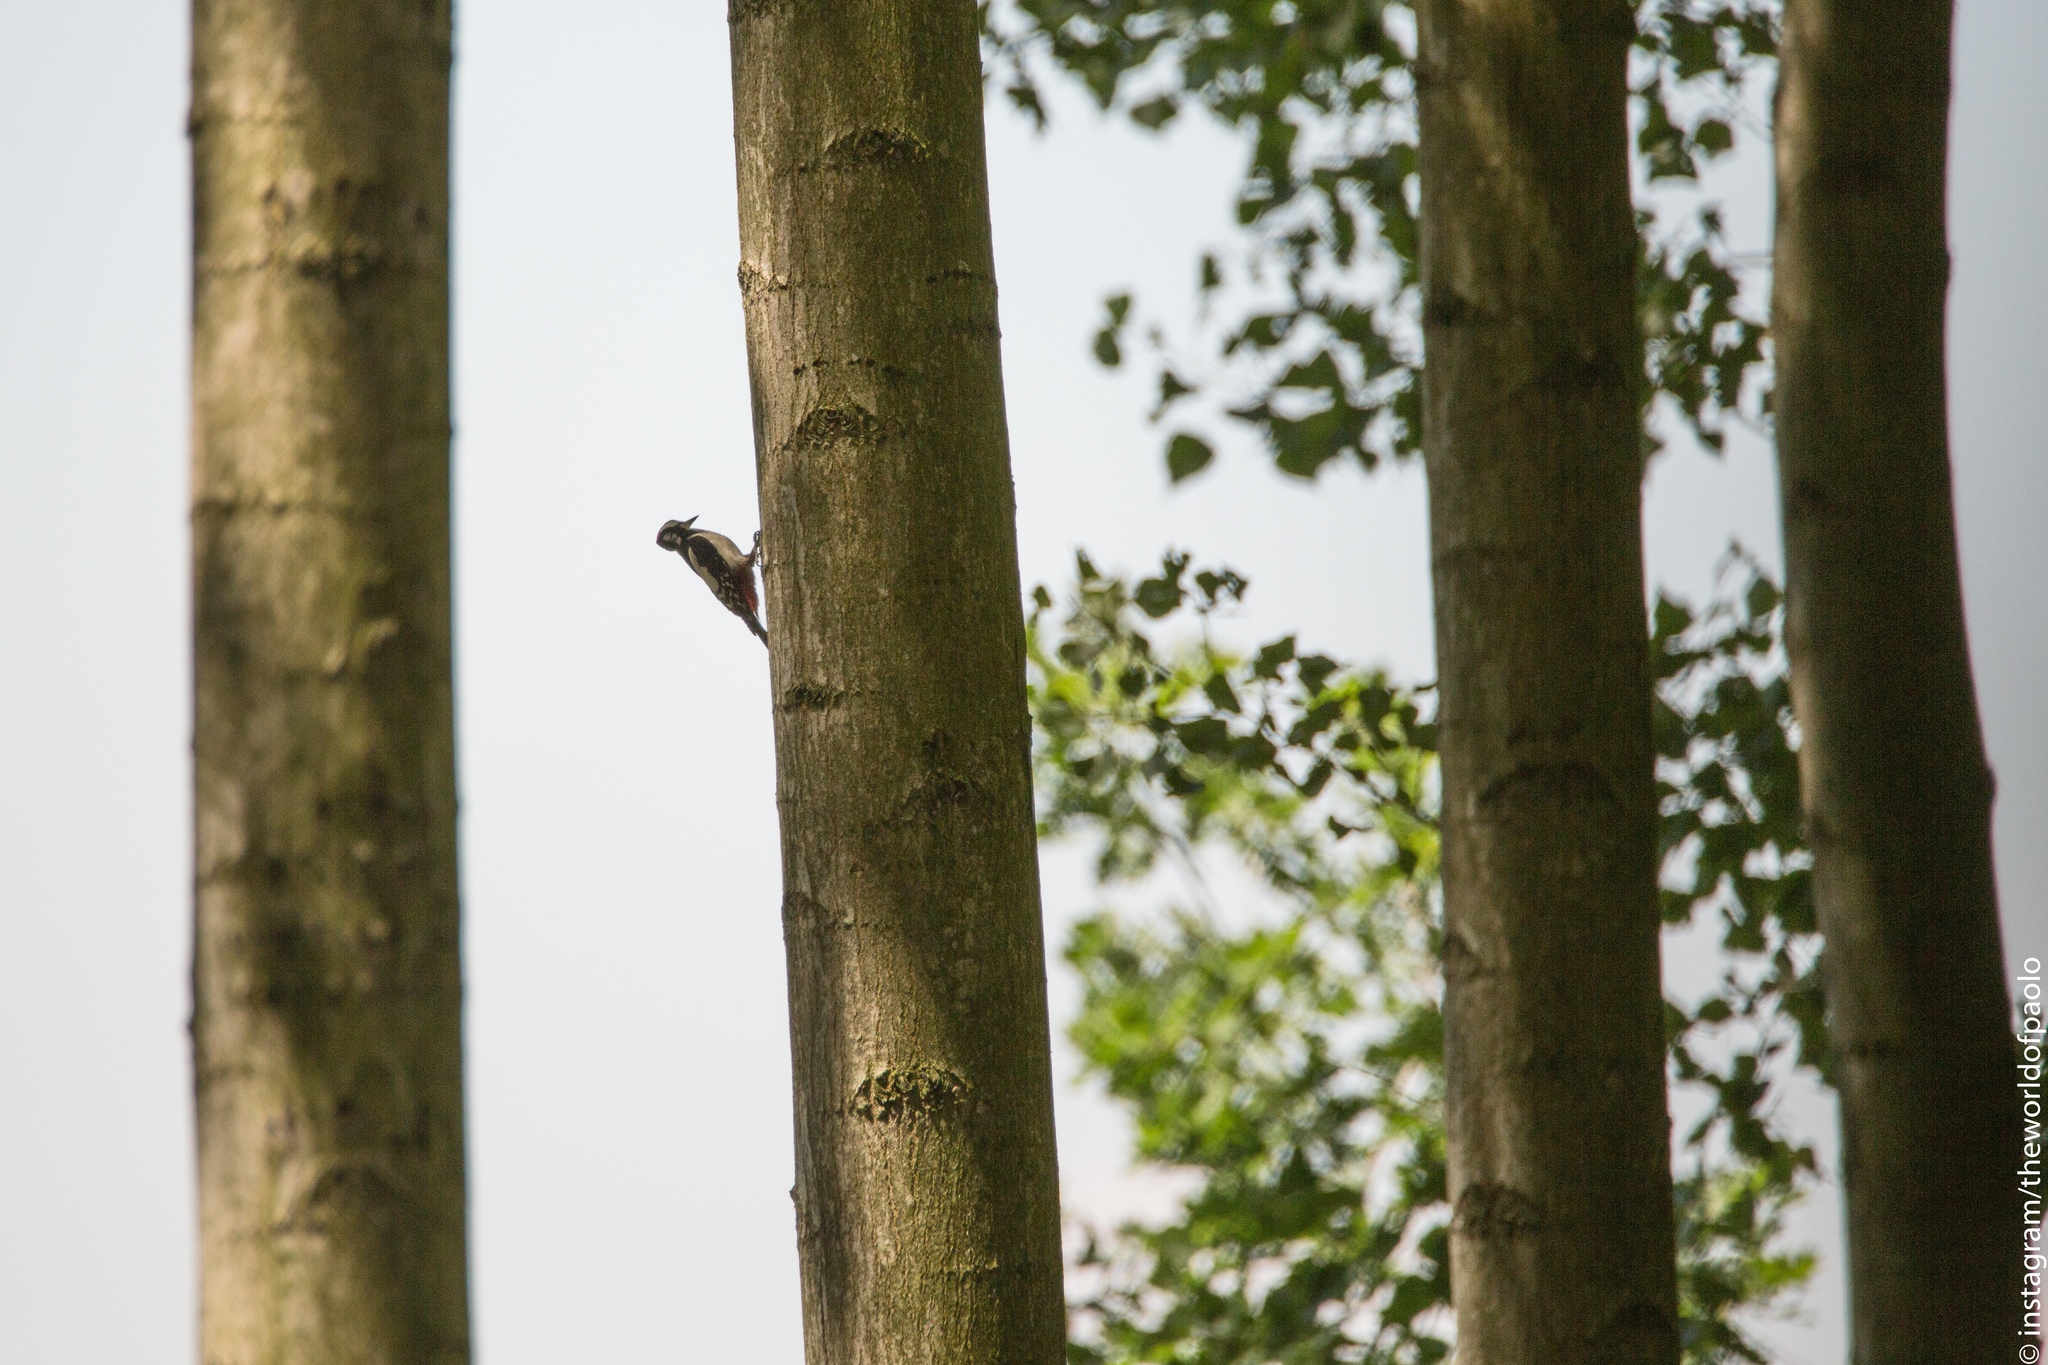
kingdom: Animalia
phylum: Chordata
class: Aves
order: Piciformes
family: Picidae
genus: Dendrocopos
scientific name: Dendrocopos major
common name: Great spotted woodpecker
